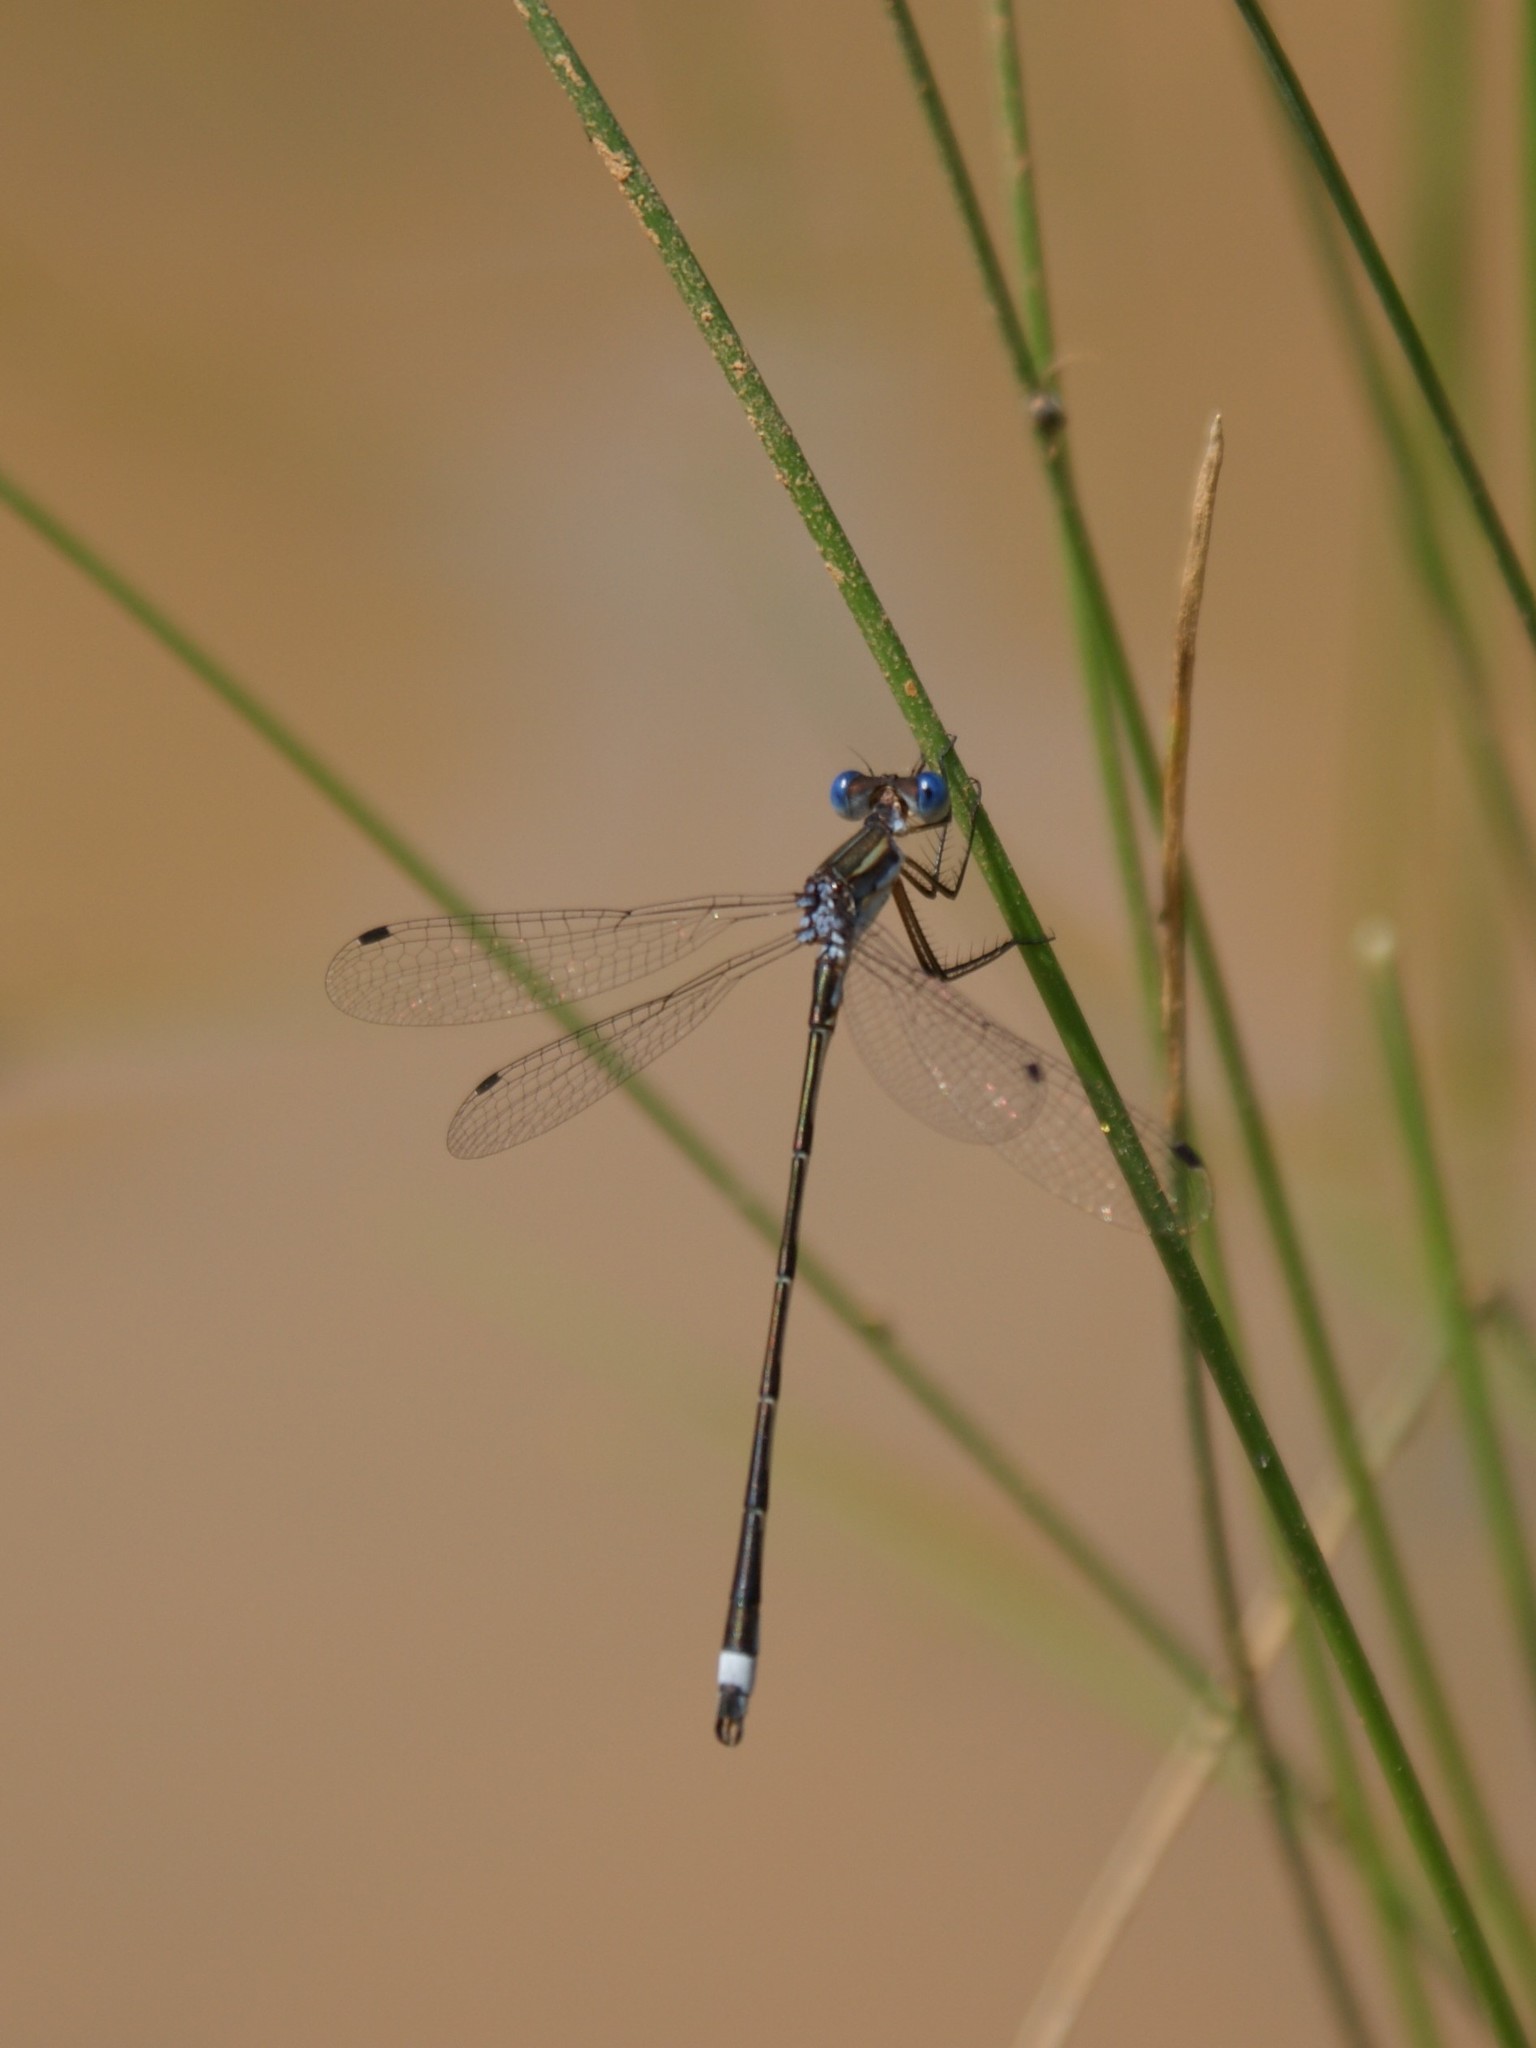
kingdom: Animalia
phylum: Arthropoda
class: Insecta
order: Odonata
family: Lestidae
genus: Lestes
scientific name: Lestes australis
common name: Southern spreadwing
